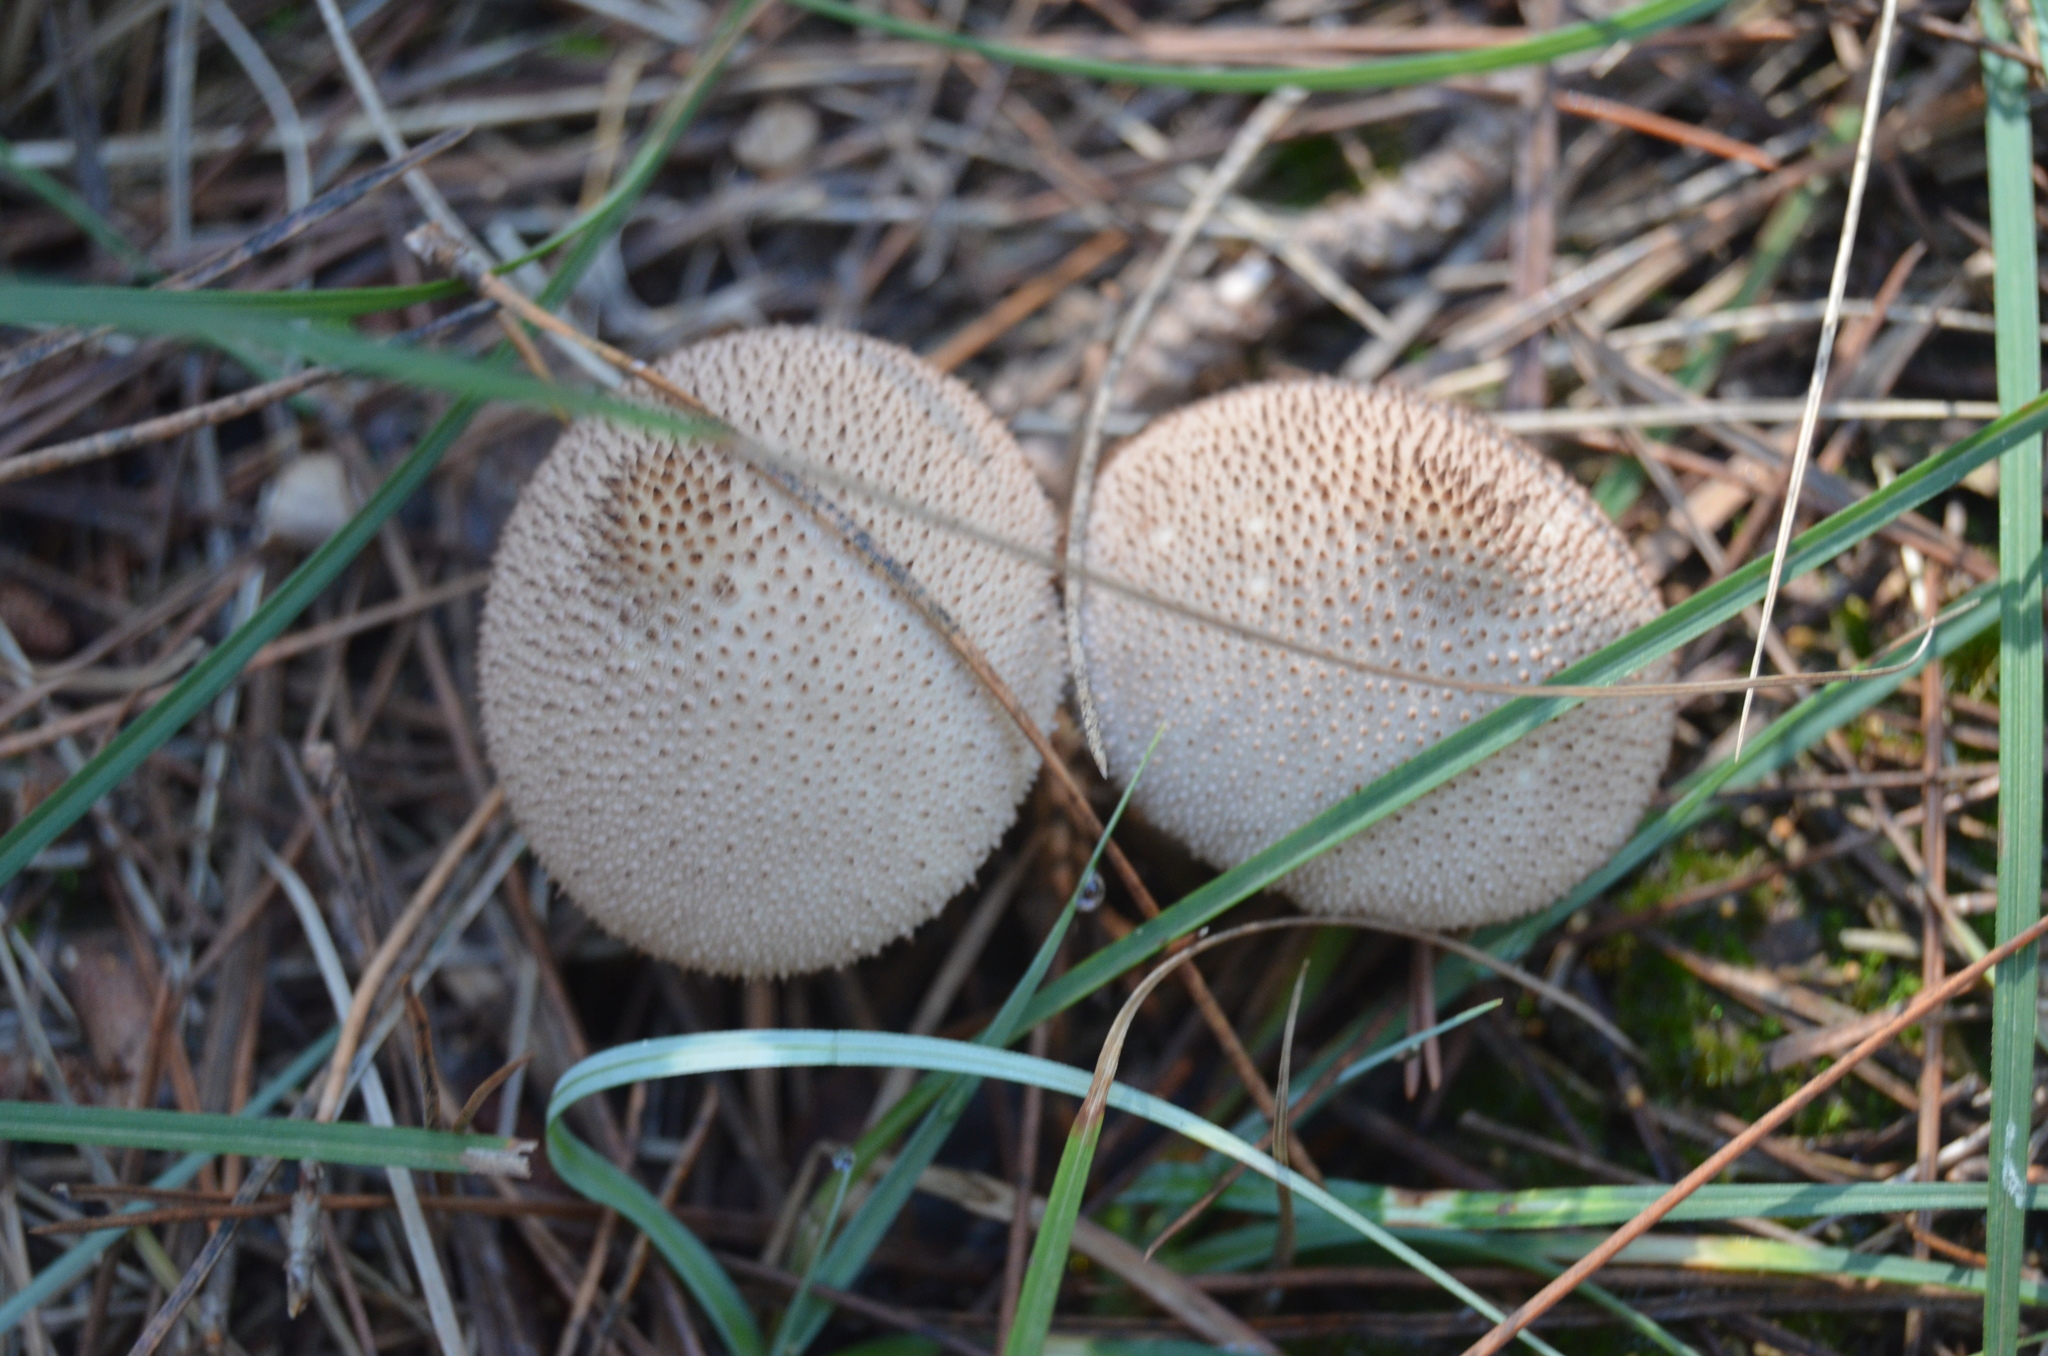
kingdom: Fungi
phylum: Basidiomycota
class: Agaricomycetes
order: Agaricales
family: Lycoperdaceae
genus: Lycoperdon
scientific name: Lycoperdon perlatum
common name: Common puffball
